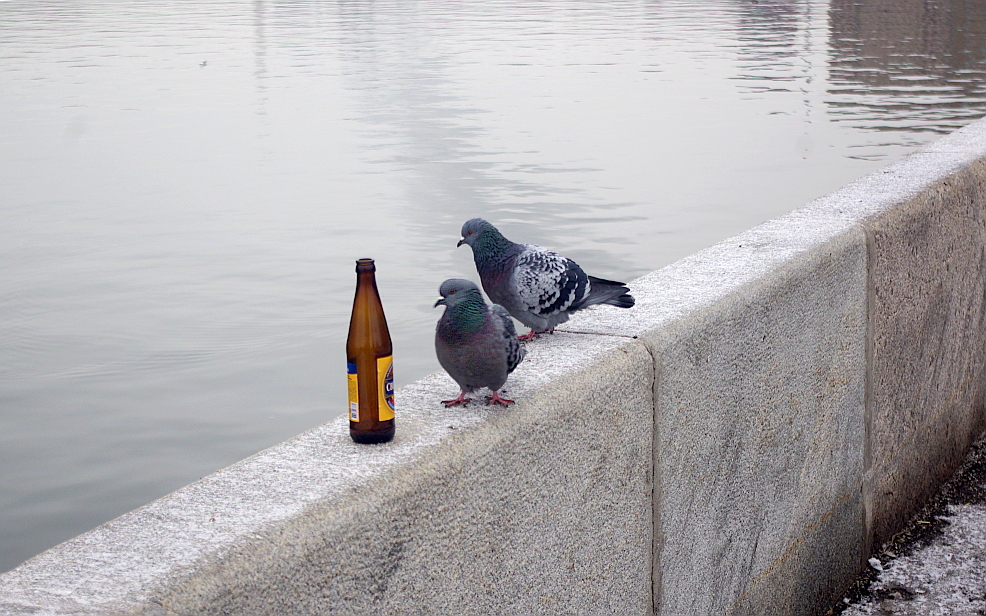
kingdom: Animalia
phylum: Chordata
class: Aves
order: Columbiformes
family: Columbidae
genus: Columba
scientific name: Columba livia
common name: Rock pigeon
